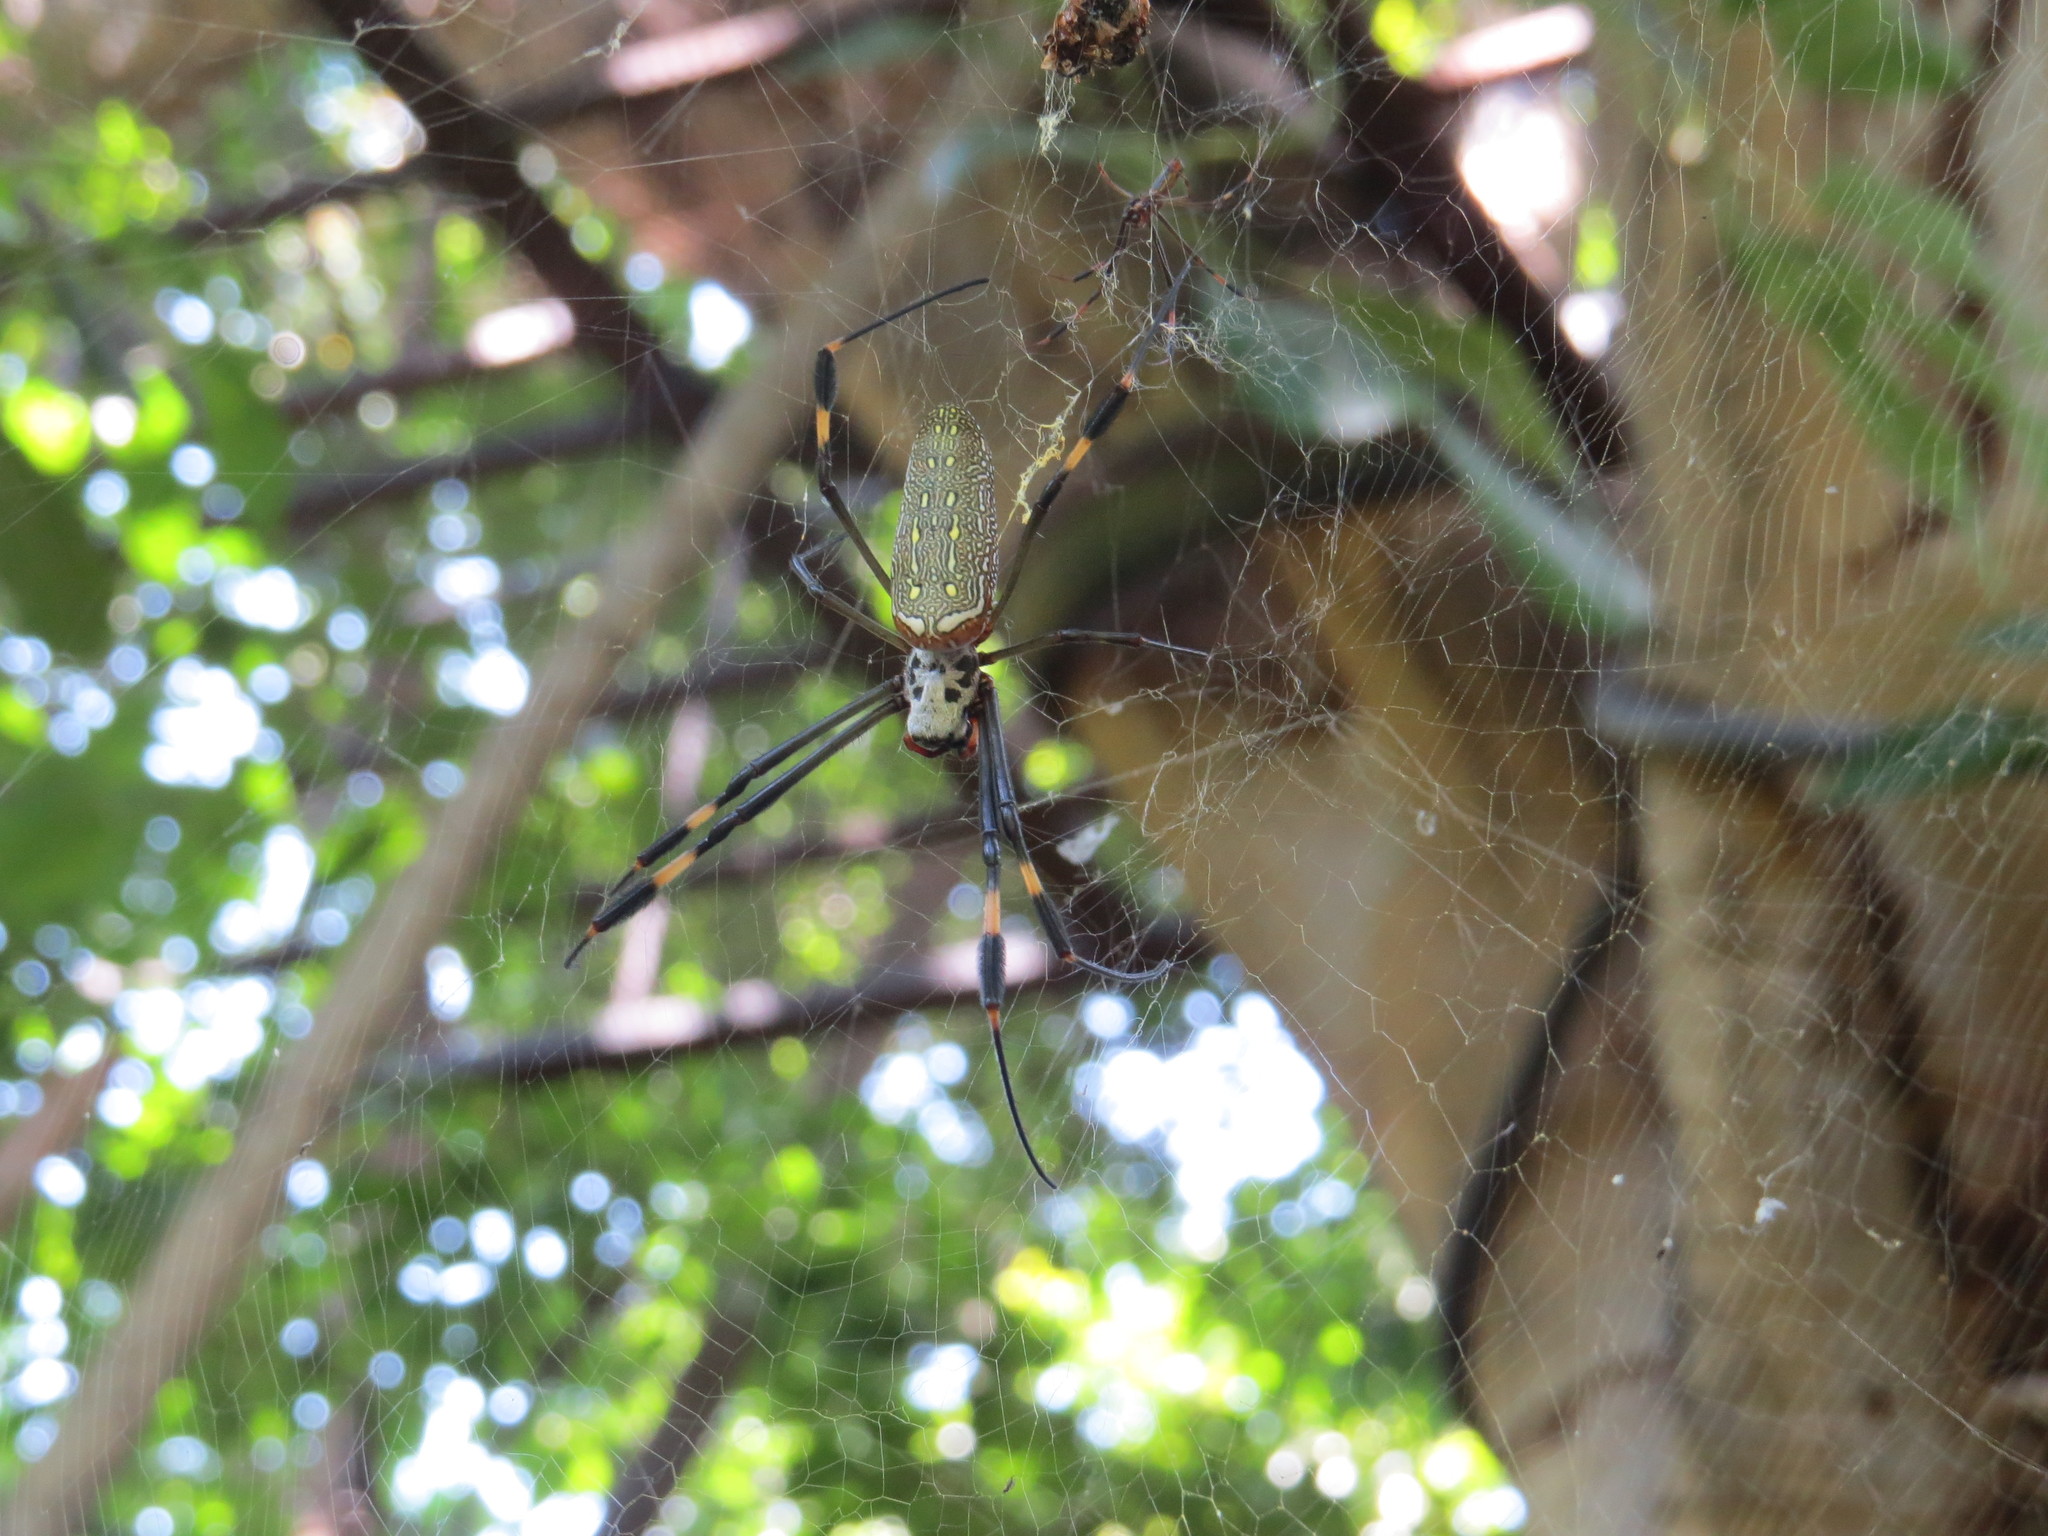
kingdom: Animalia
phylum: Arthropoda
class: Arachnida
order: Araneae
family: Araneidae
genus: Trichonephila
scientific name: Trichonephila clavipes
